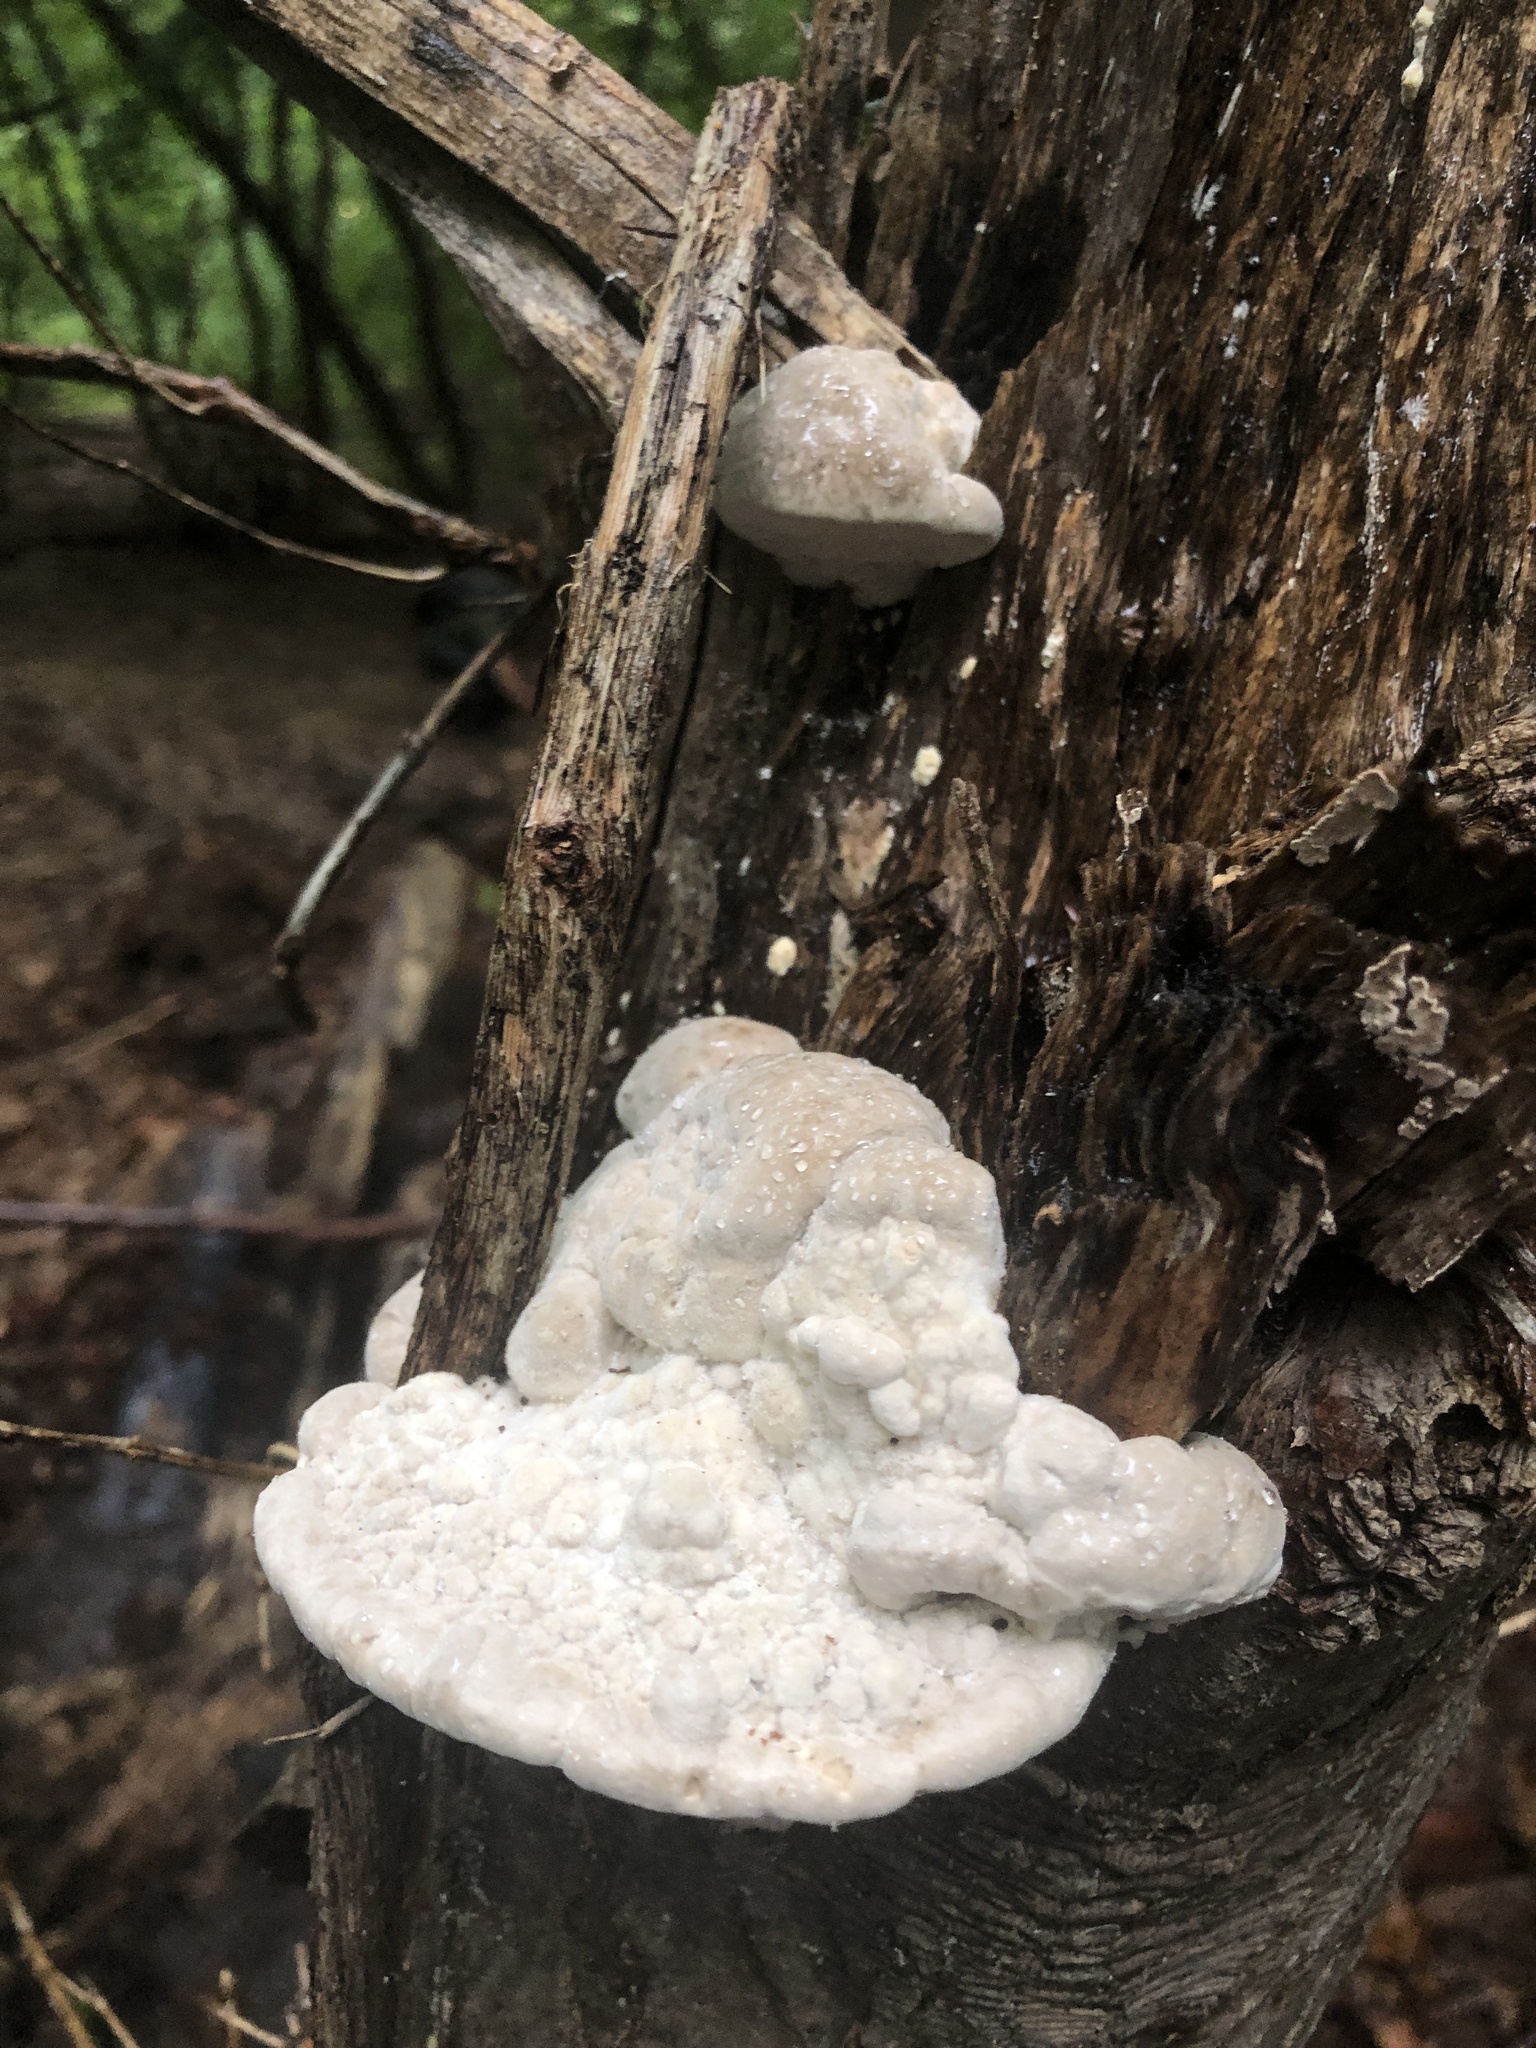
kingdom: Fungi
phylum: Basidiomycota
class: Agaricomycetes
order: Polyporales
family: Fomitopsidaceae
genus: Niveoporofomes
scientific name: Niveoporofomes spraguei
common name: Green cheese polypore
